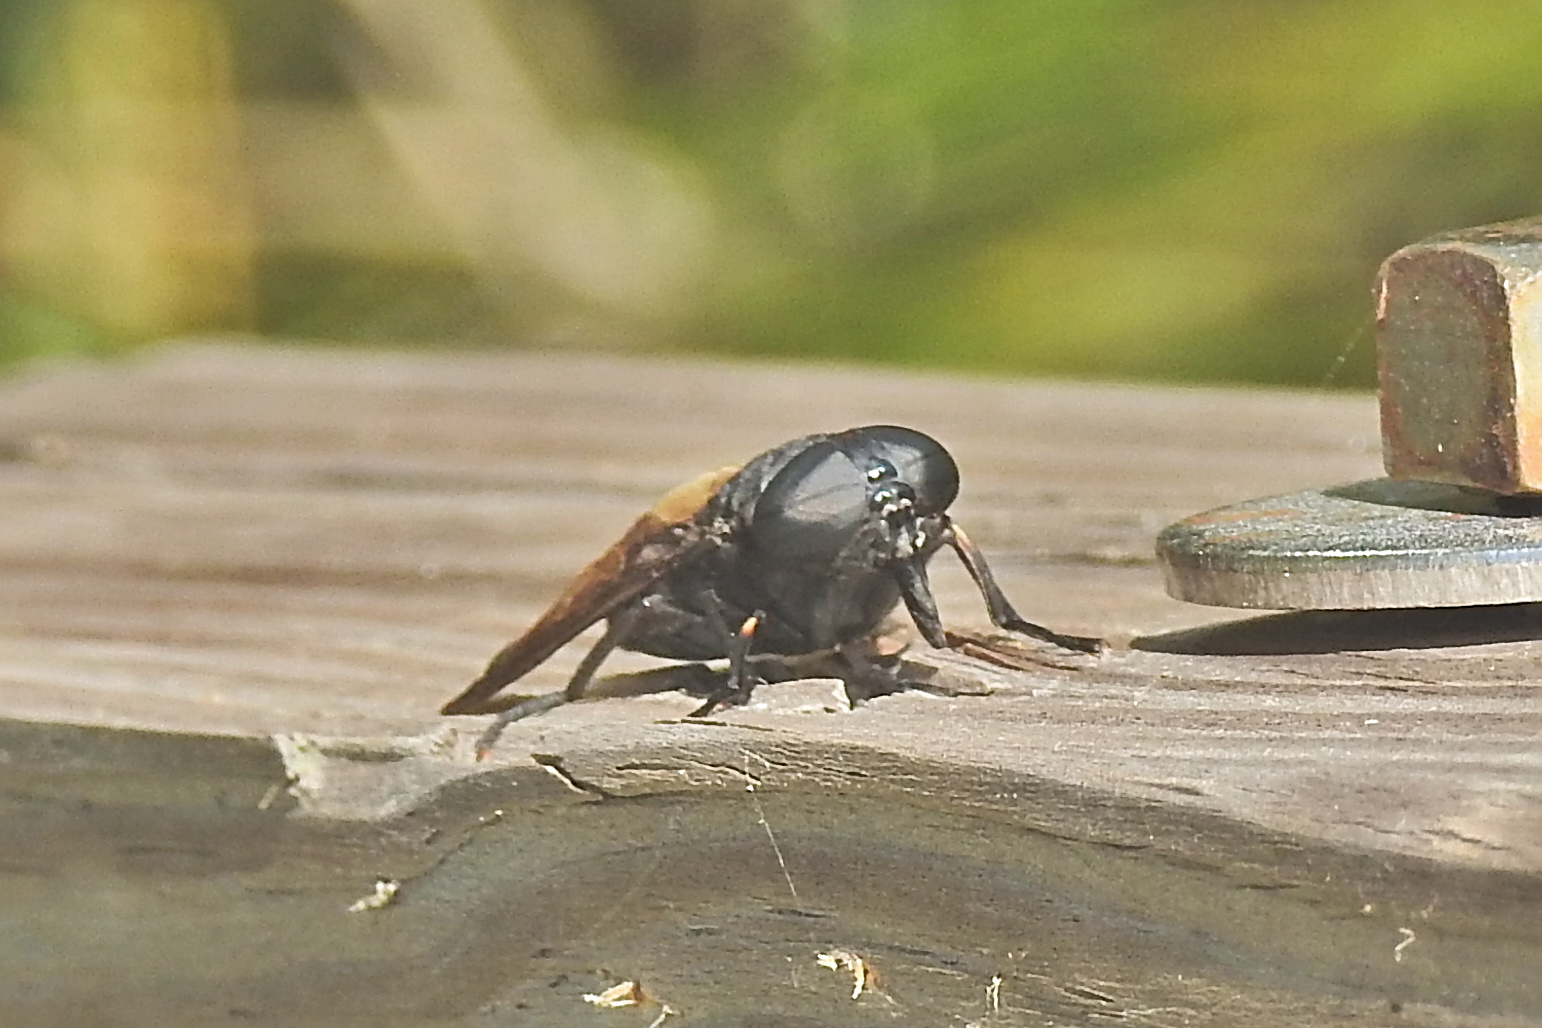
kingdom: Animalia
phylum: Arthropoda
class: Insecta
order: Diptera
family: Tabanidae
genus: Tabanus
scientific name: Tabanus atratus
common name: Black horse fly
